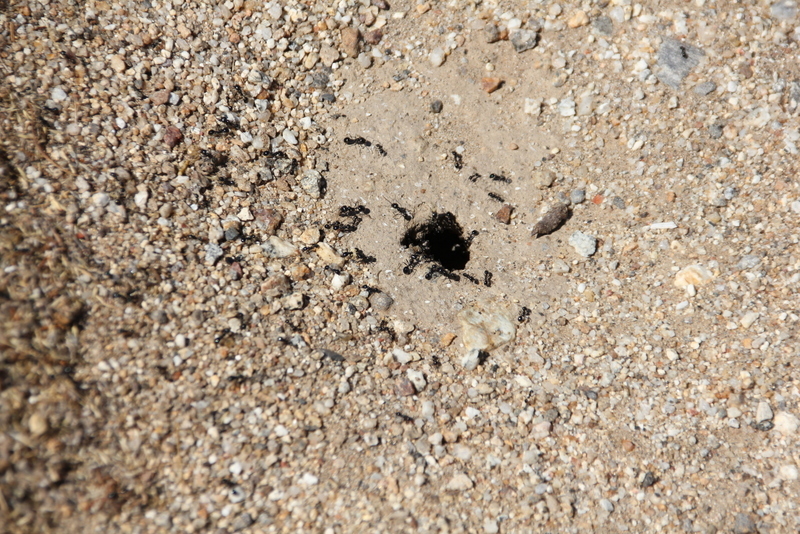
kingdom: Animalia
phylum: Arthropoda
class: Insecta
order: Hymenoptera
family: Formicidae
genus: Messor
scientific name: Messor pergandei
